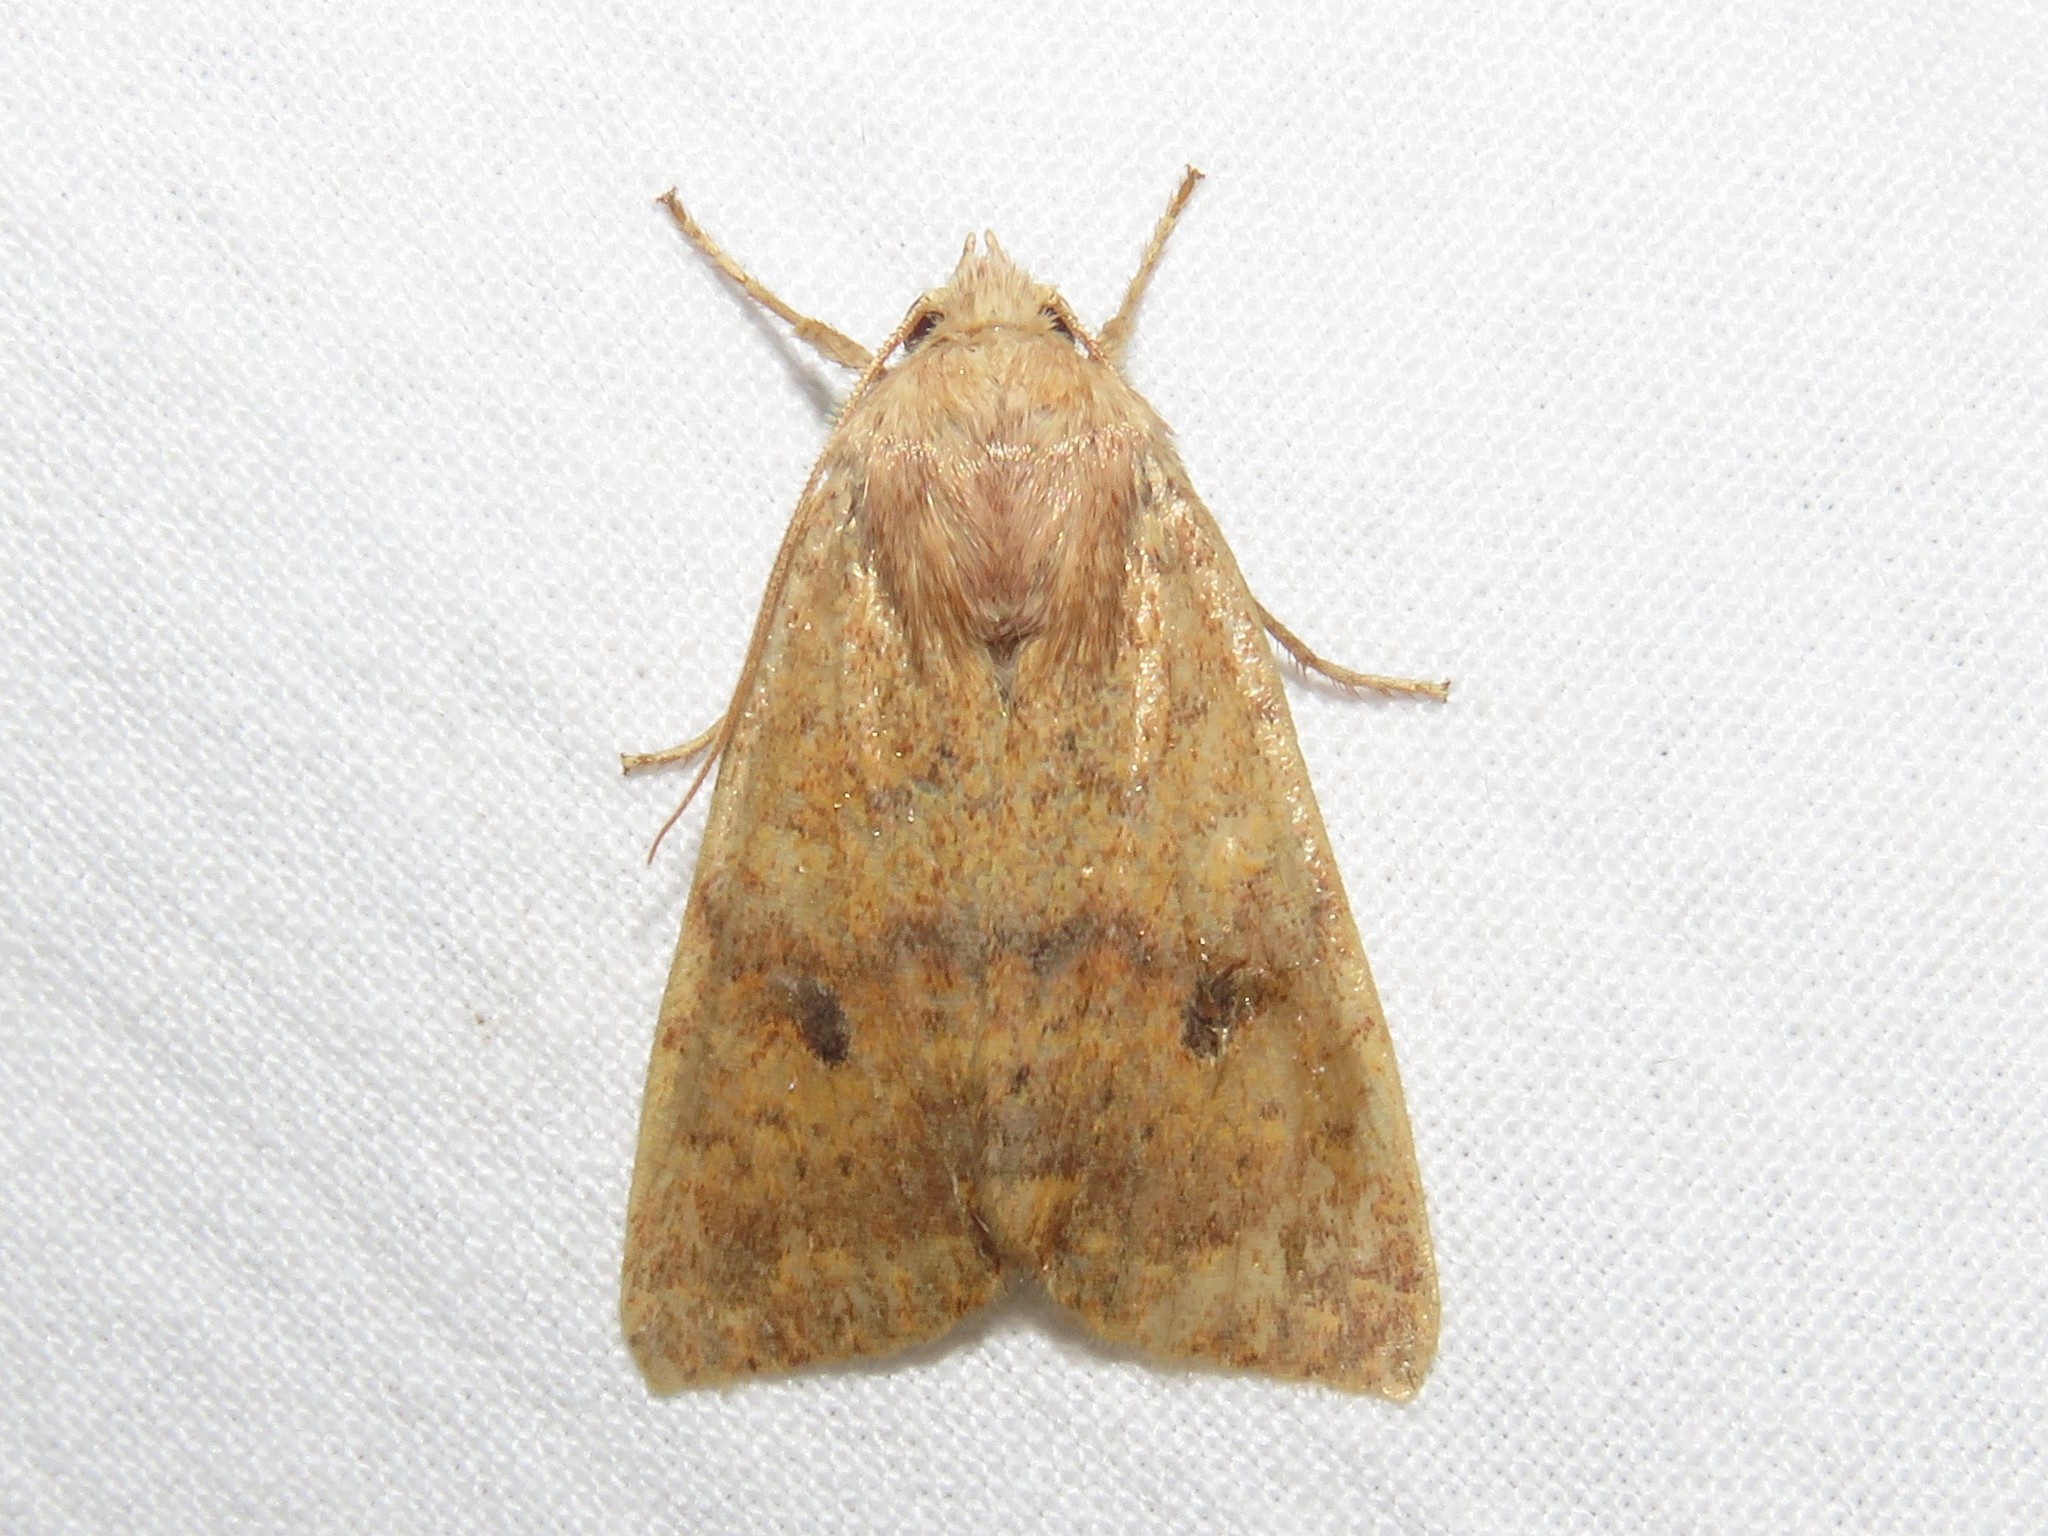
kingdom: Animalia
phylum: Arthropoda
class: Insecta
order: Lepidoptera
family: Noctuidae
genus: Agrochola
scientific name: Agrochola bicolorago
